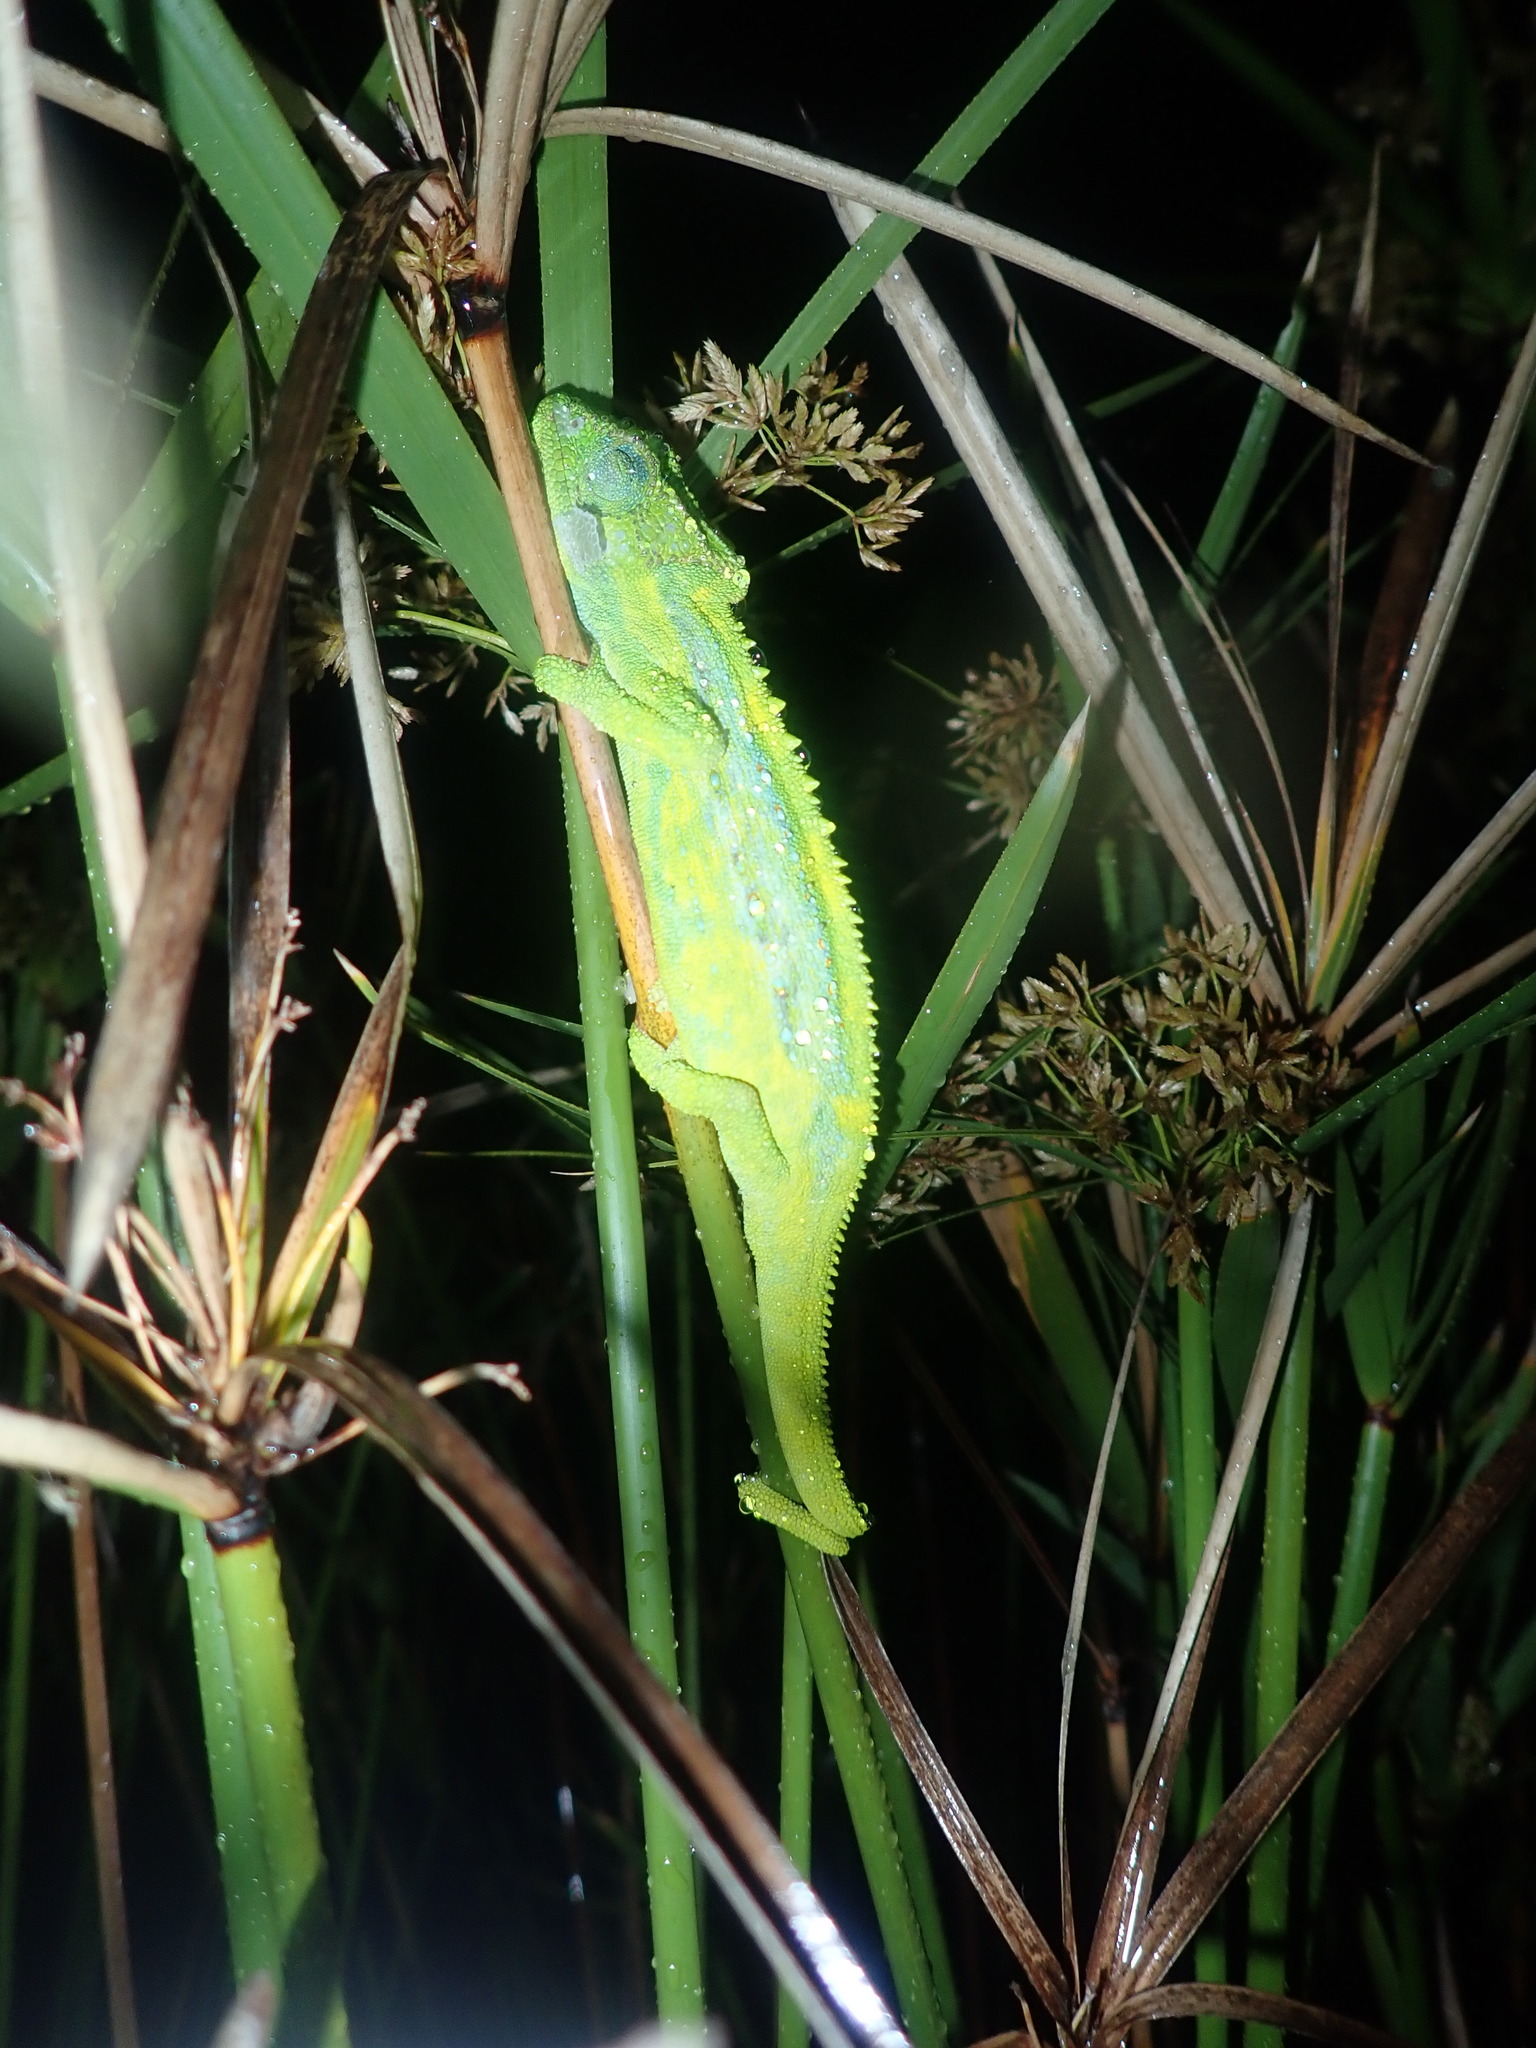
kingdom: Animalia
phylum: Chordata
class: Squamata
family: Chamaeleonidae
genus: Bradypodion
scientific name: Bradypodion pumilum
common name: Cape dwarf chameleon
